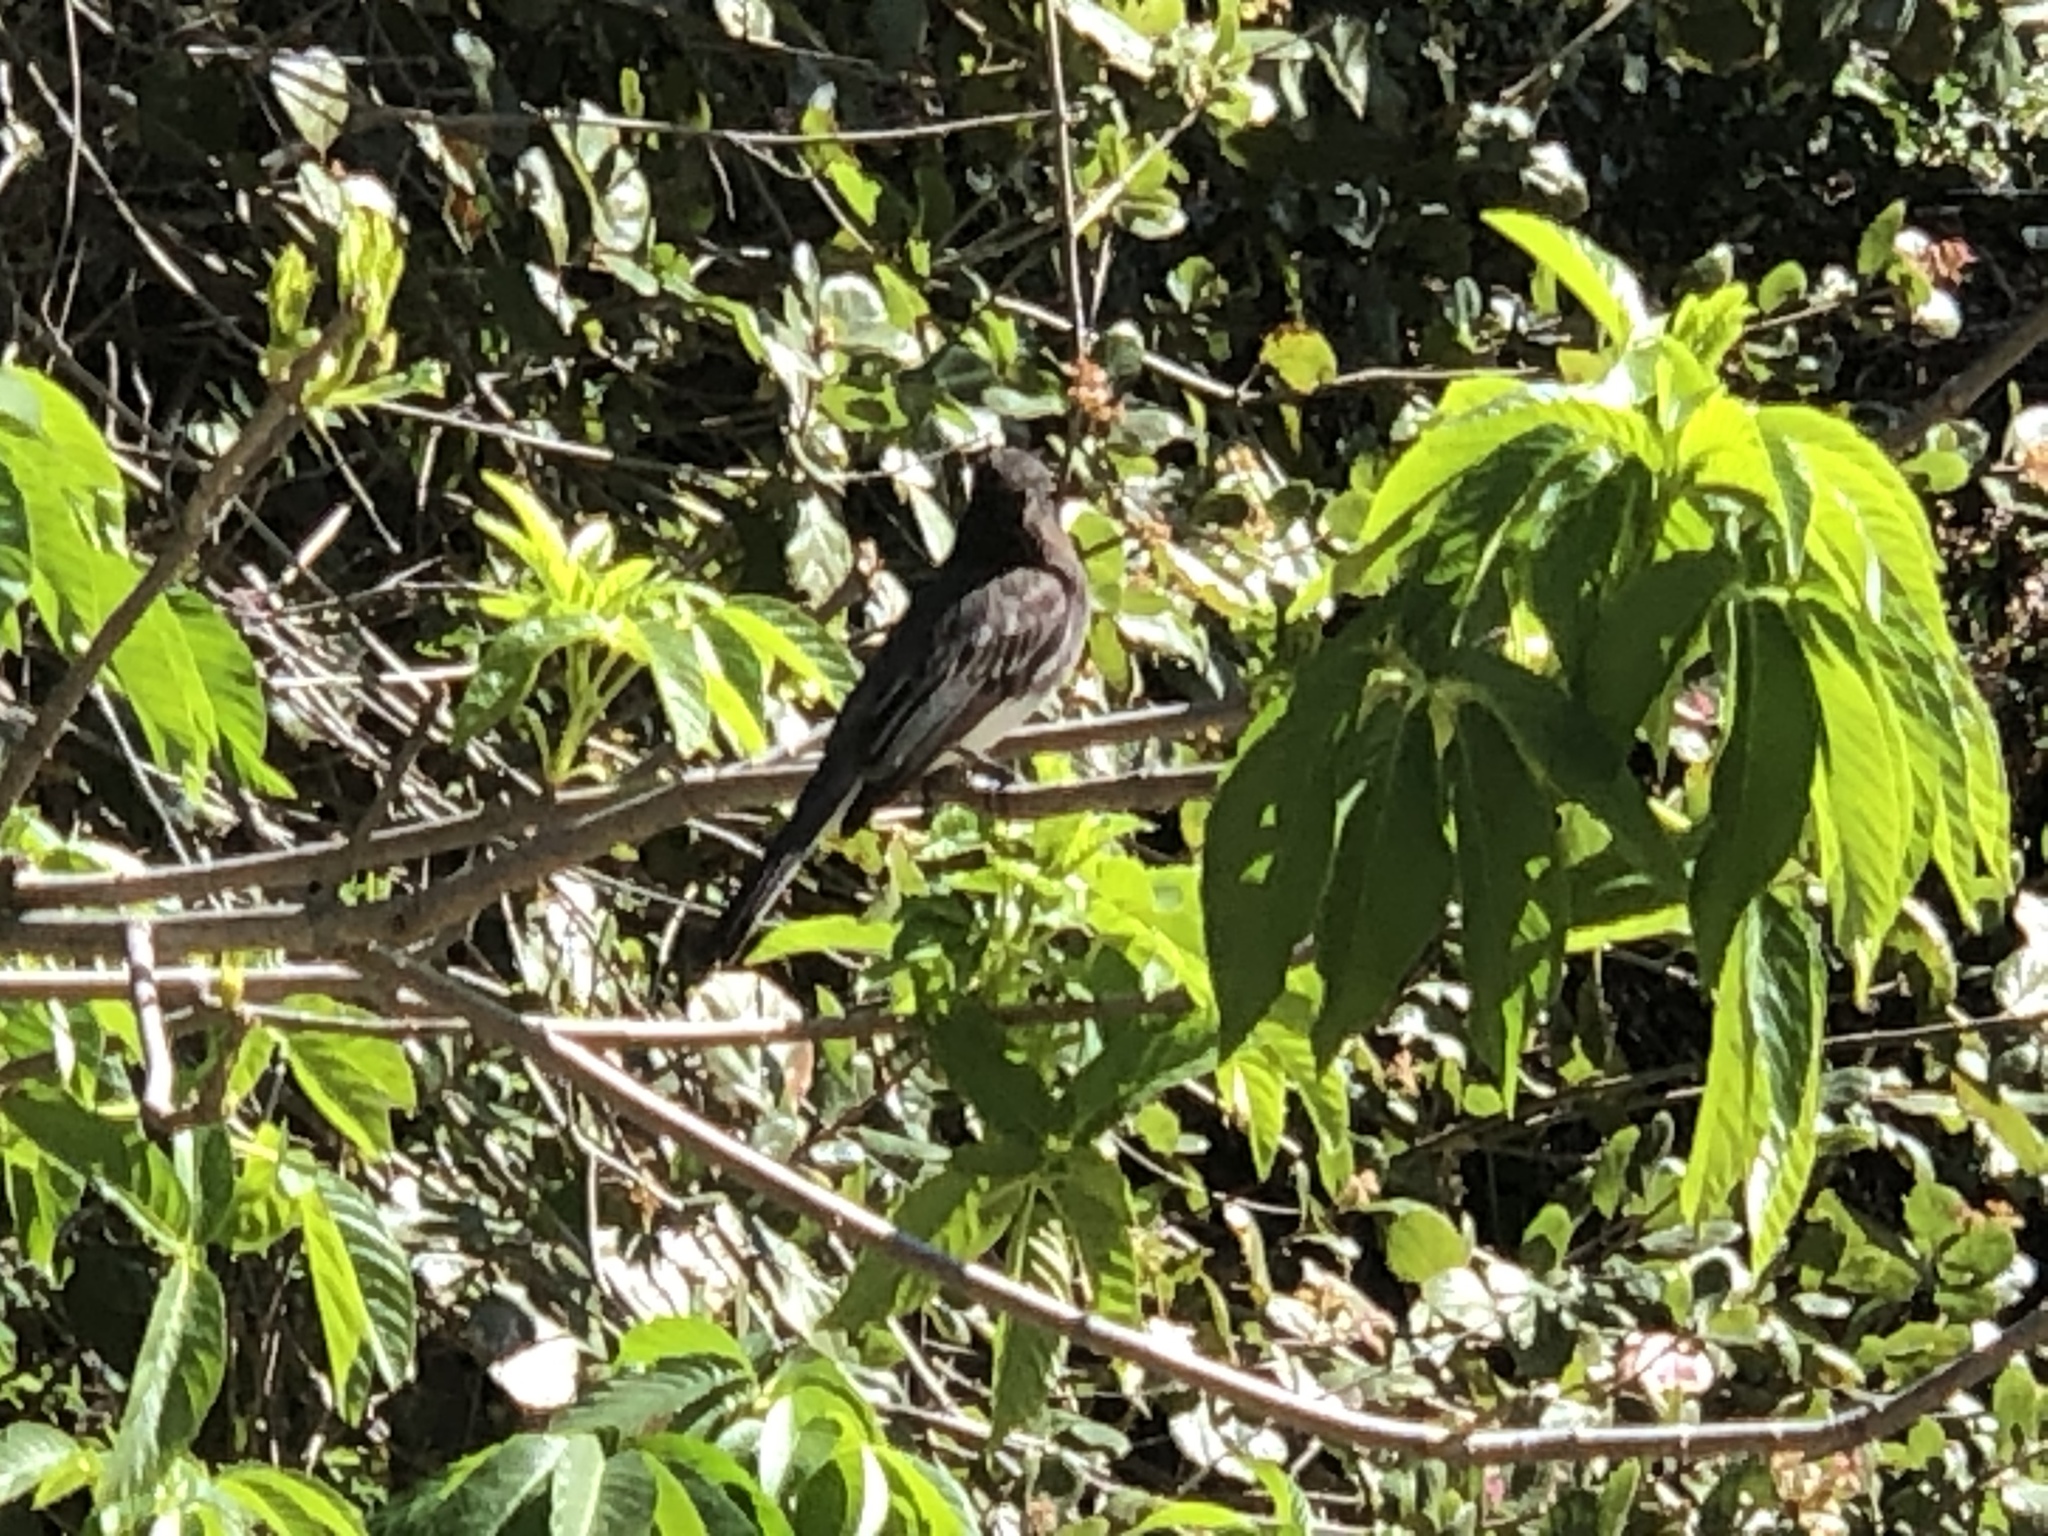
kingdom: Animalia
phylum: Chordata
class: Aves
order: Passeriformes
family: Tyrannidae
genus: Sayornis
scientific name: Sayornis nigricans
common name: Black phoebe
